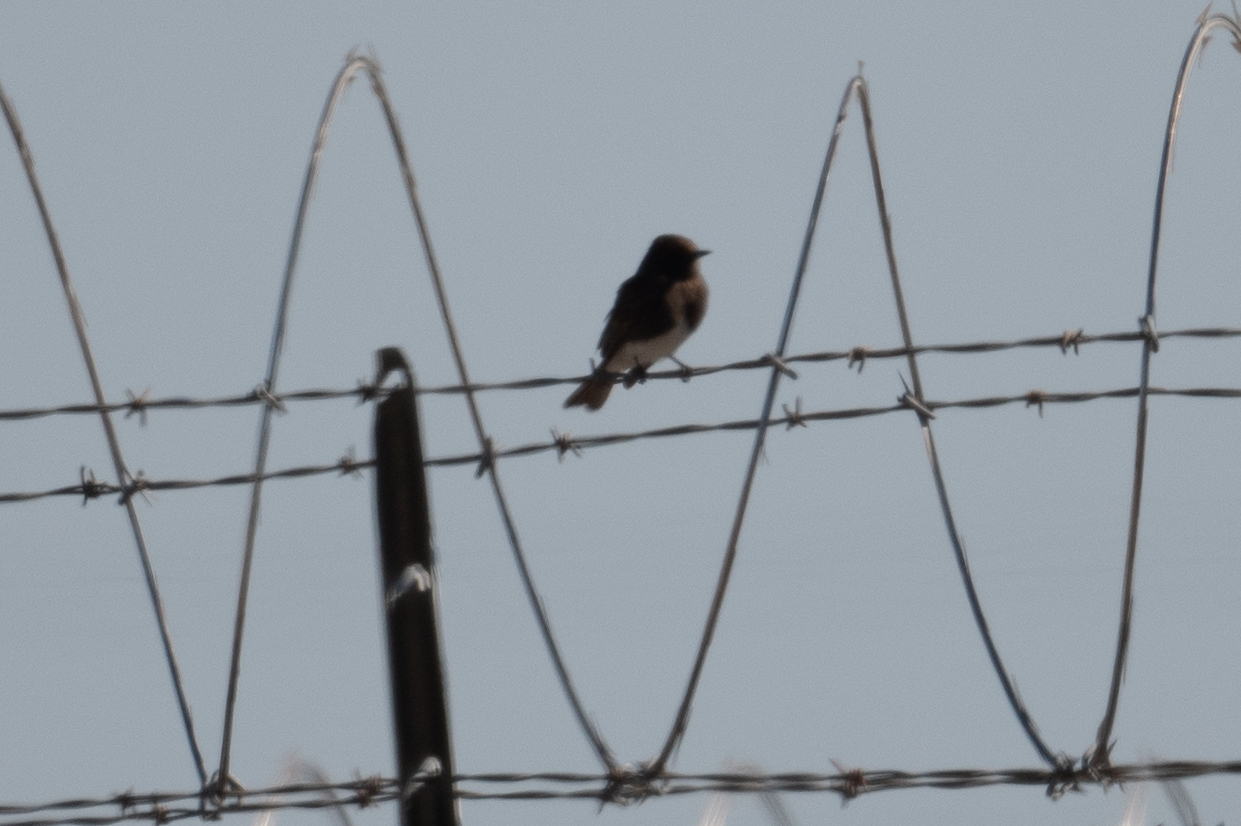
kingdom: Animalia
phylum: Chordata
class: Aves
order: Passeriformes
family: Tyrannidae
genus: Sayornis
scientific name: Sayornis nigricans
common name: Black phoebe
